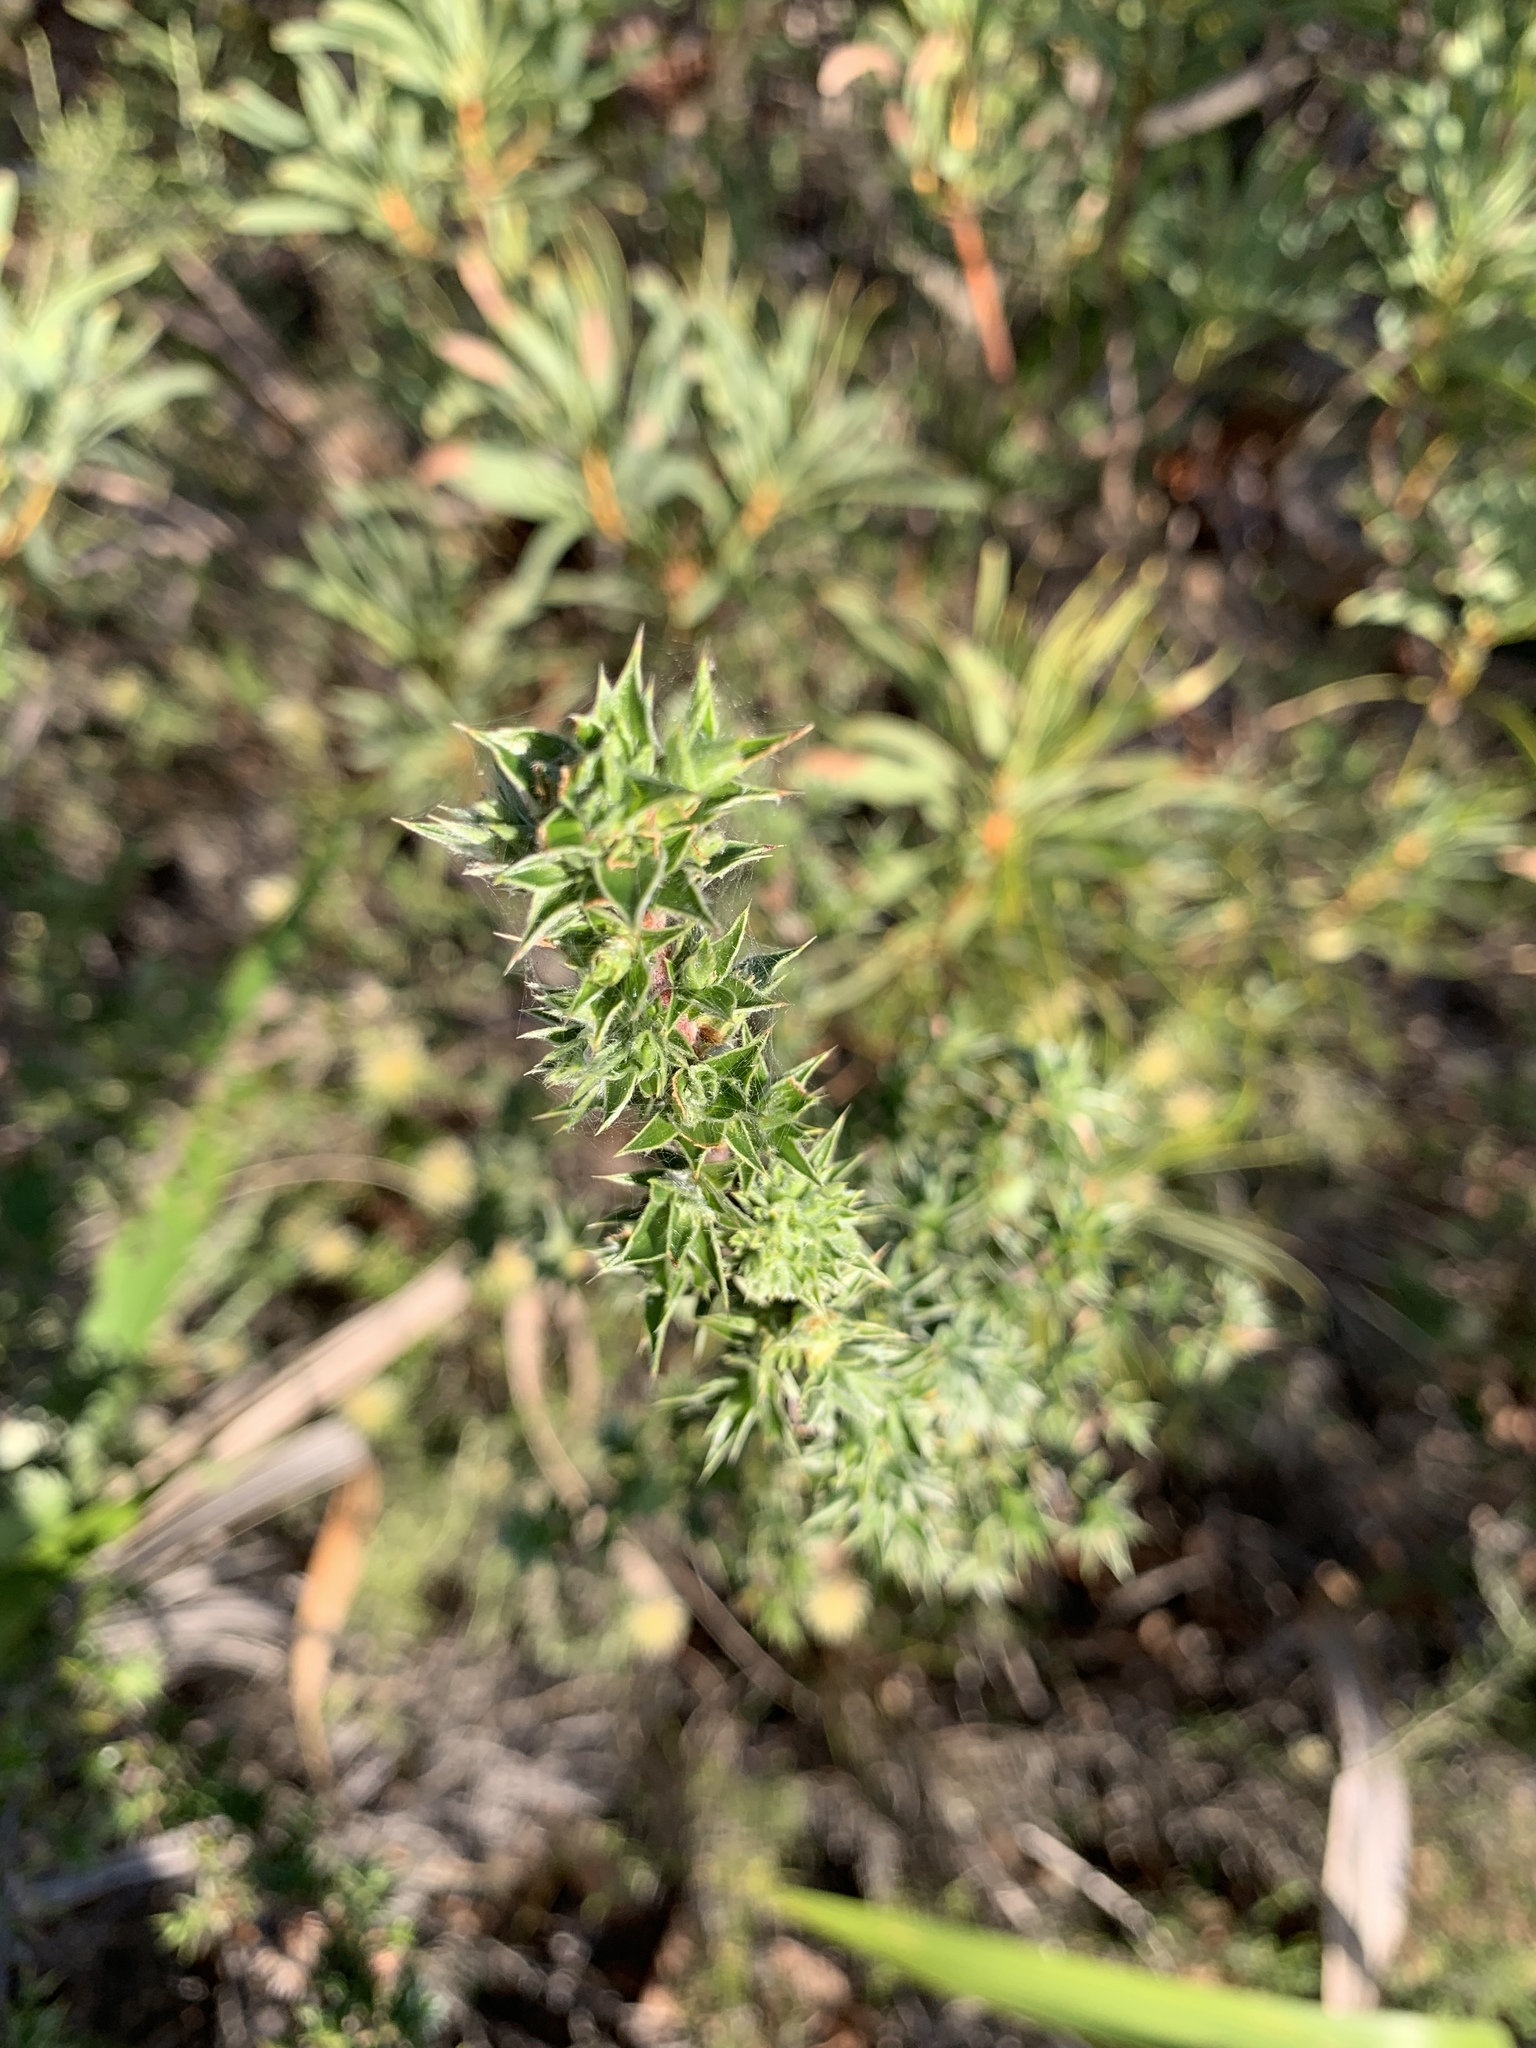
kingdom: Plantae
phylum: Tracheophyta
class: Magnoliopsida
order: Rosales
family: Rosaceae
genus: Cliffortia
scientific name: Cliffortia ruscifolia
